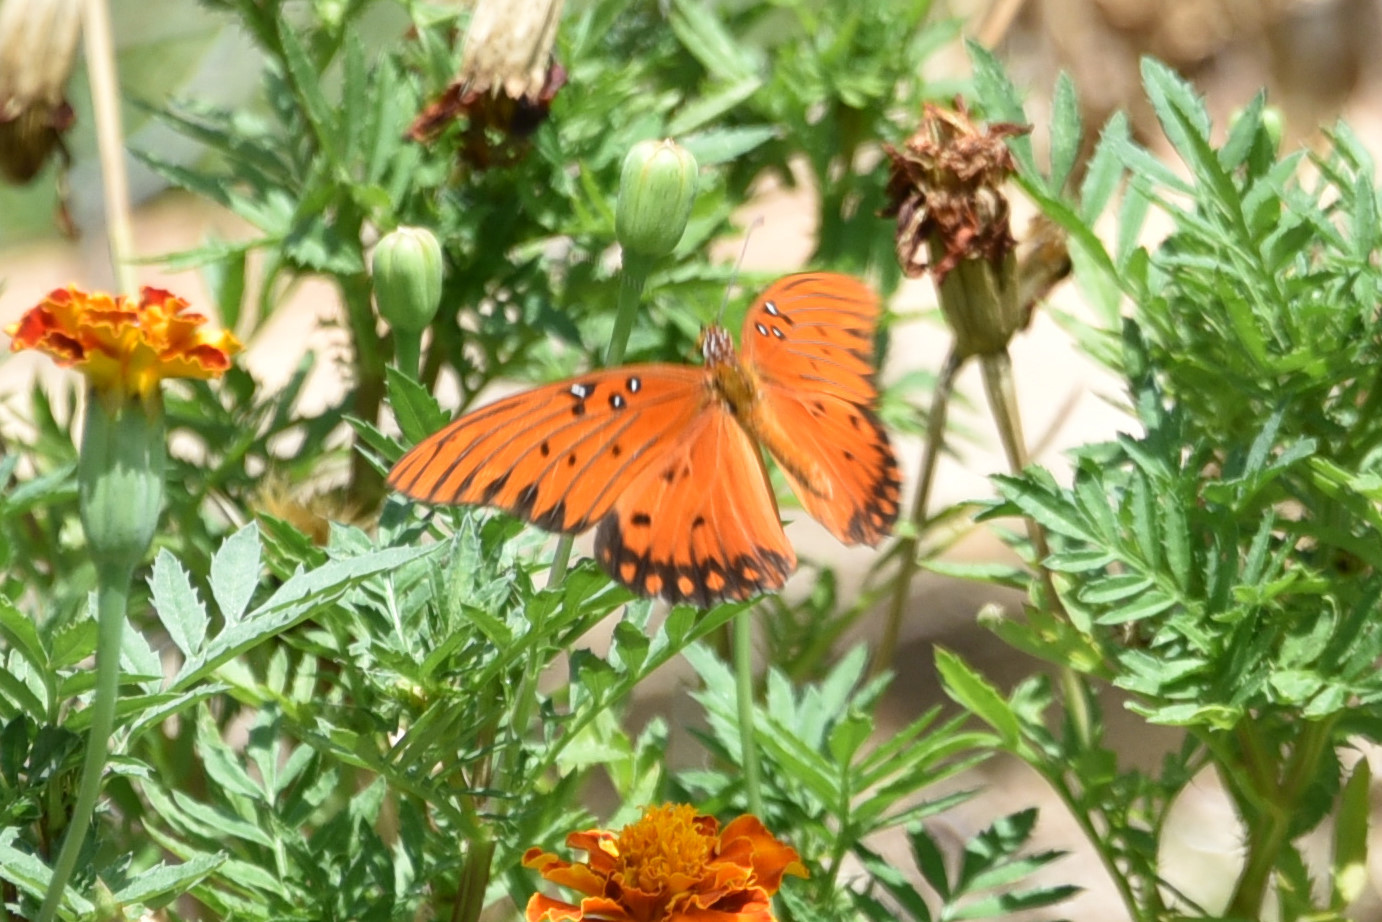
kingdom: Animalia
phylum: Arthropoda
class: Insecta
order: Lepidoptera
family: Nymphalidae
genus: Dione
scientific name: Dione vanillae
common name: Gulf fritillary
